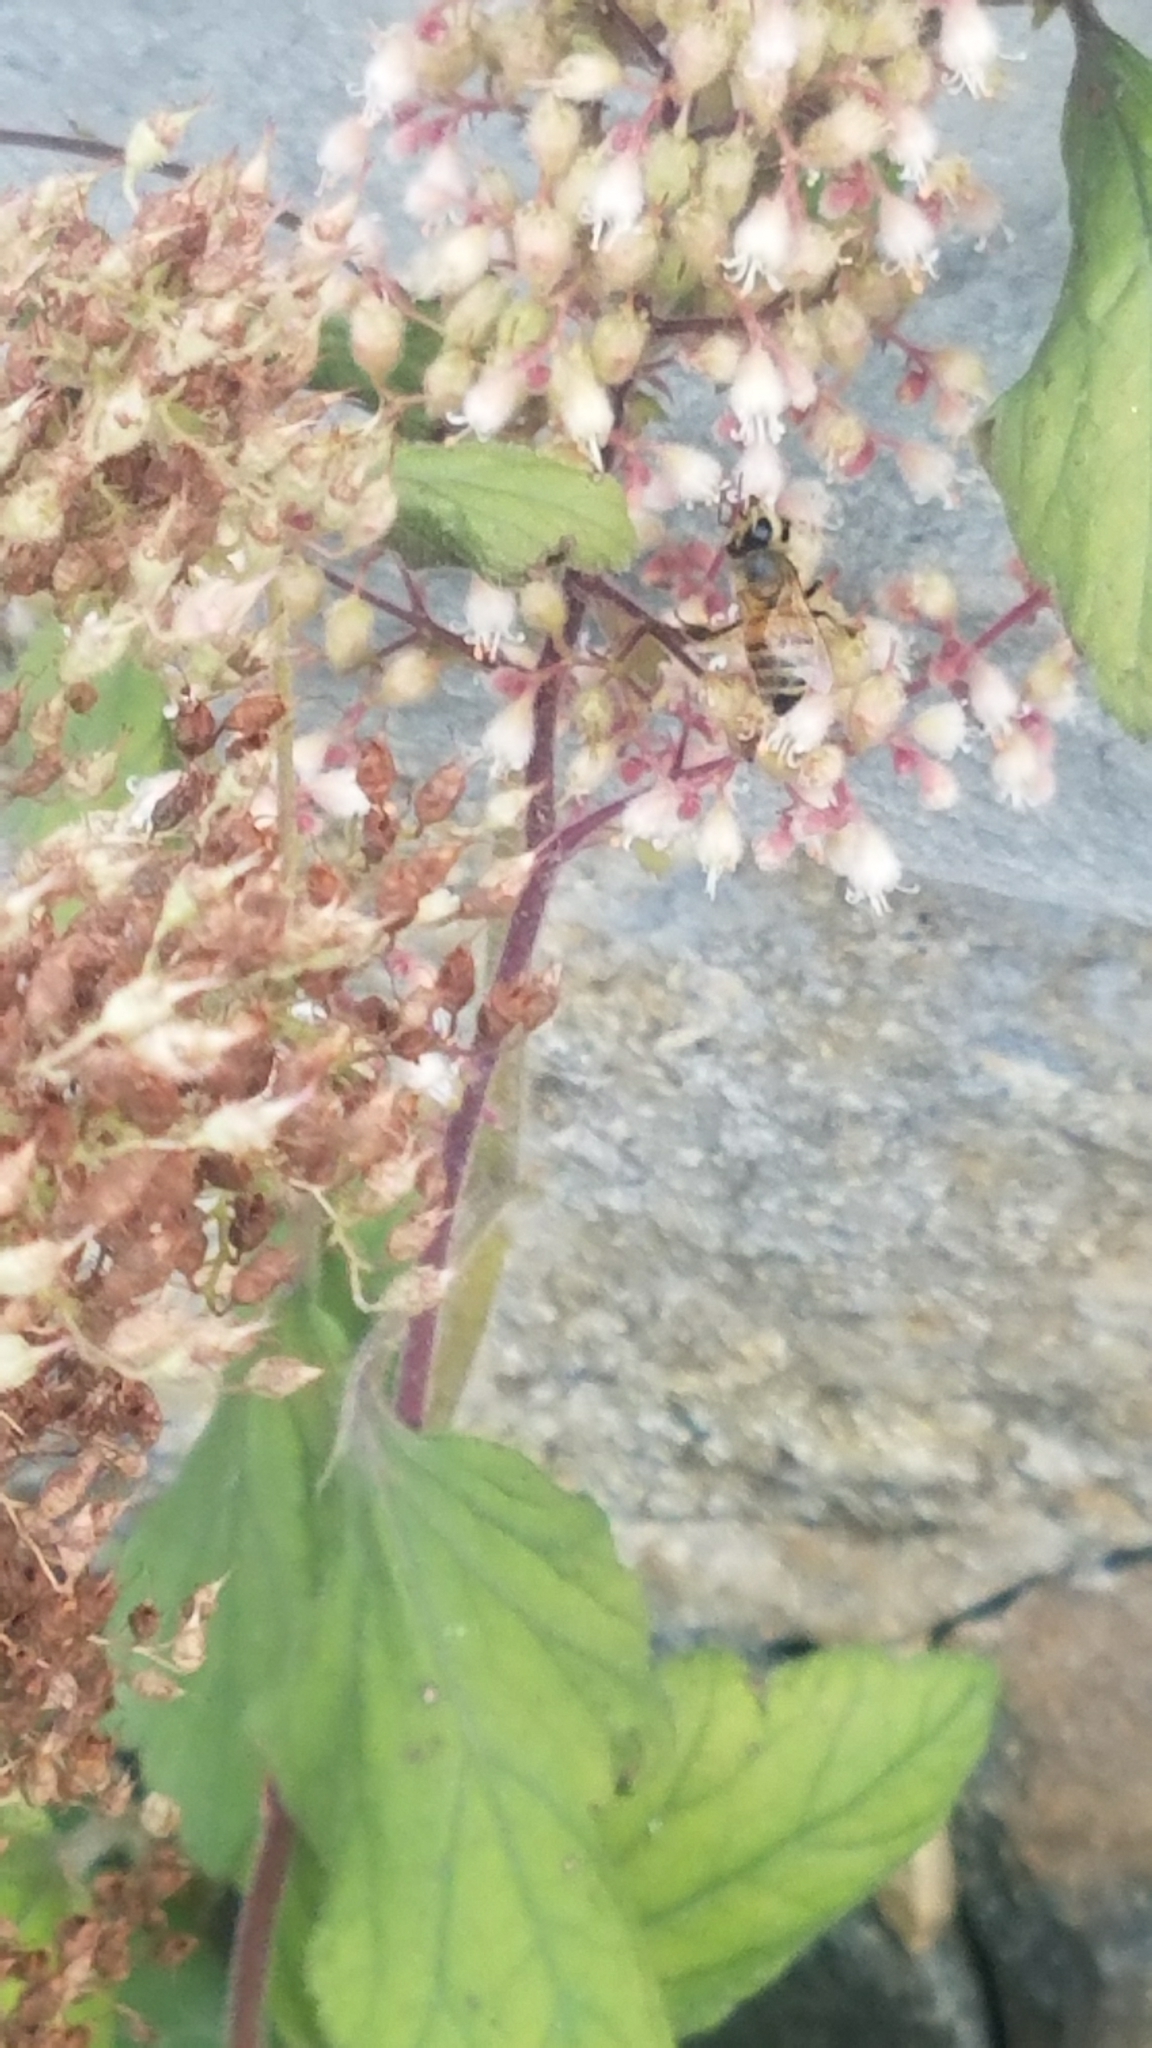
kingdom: Animalia
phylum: Arthropoda
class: Insecta
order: Hymenoptera
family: Apidae
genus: Apis
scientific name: Apis mellifera
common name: Honey bee
